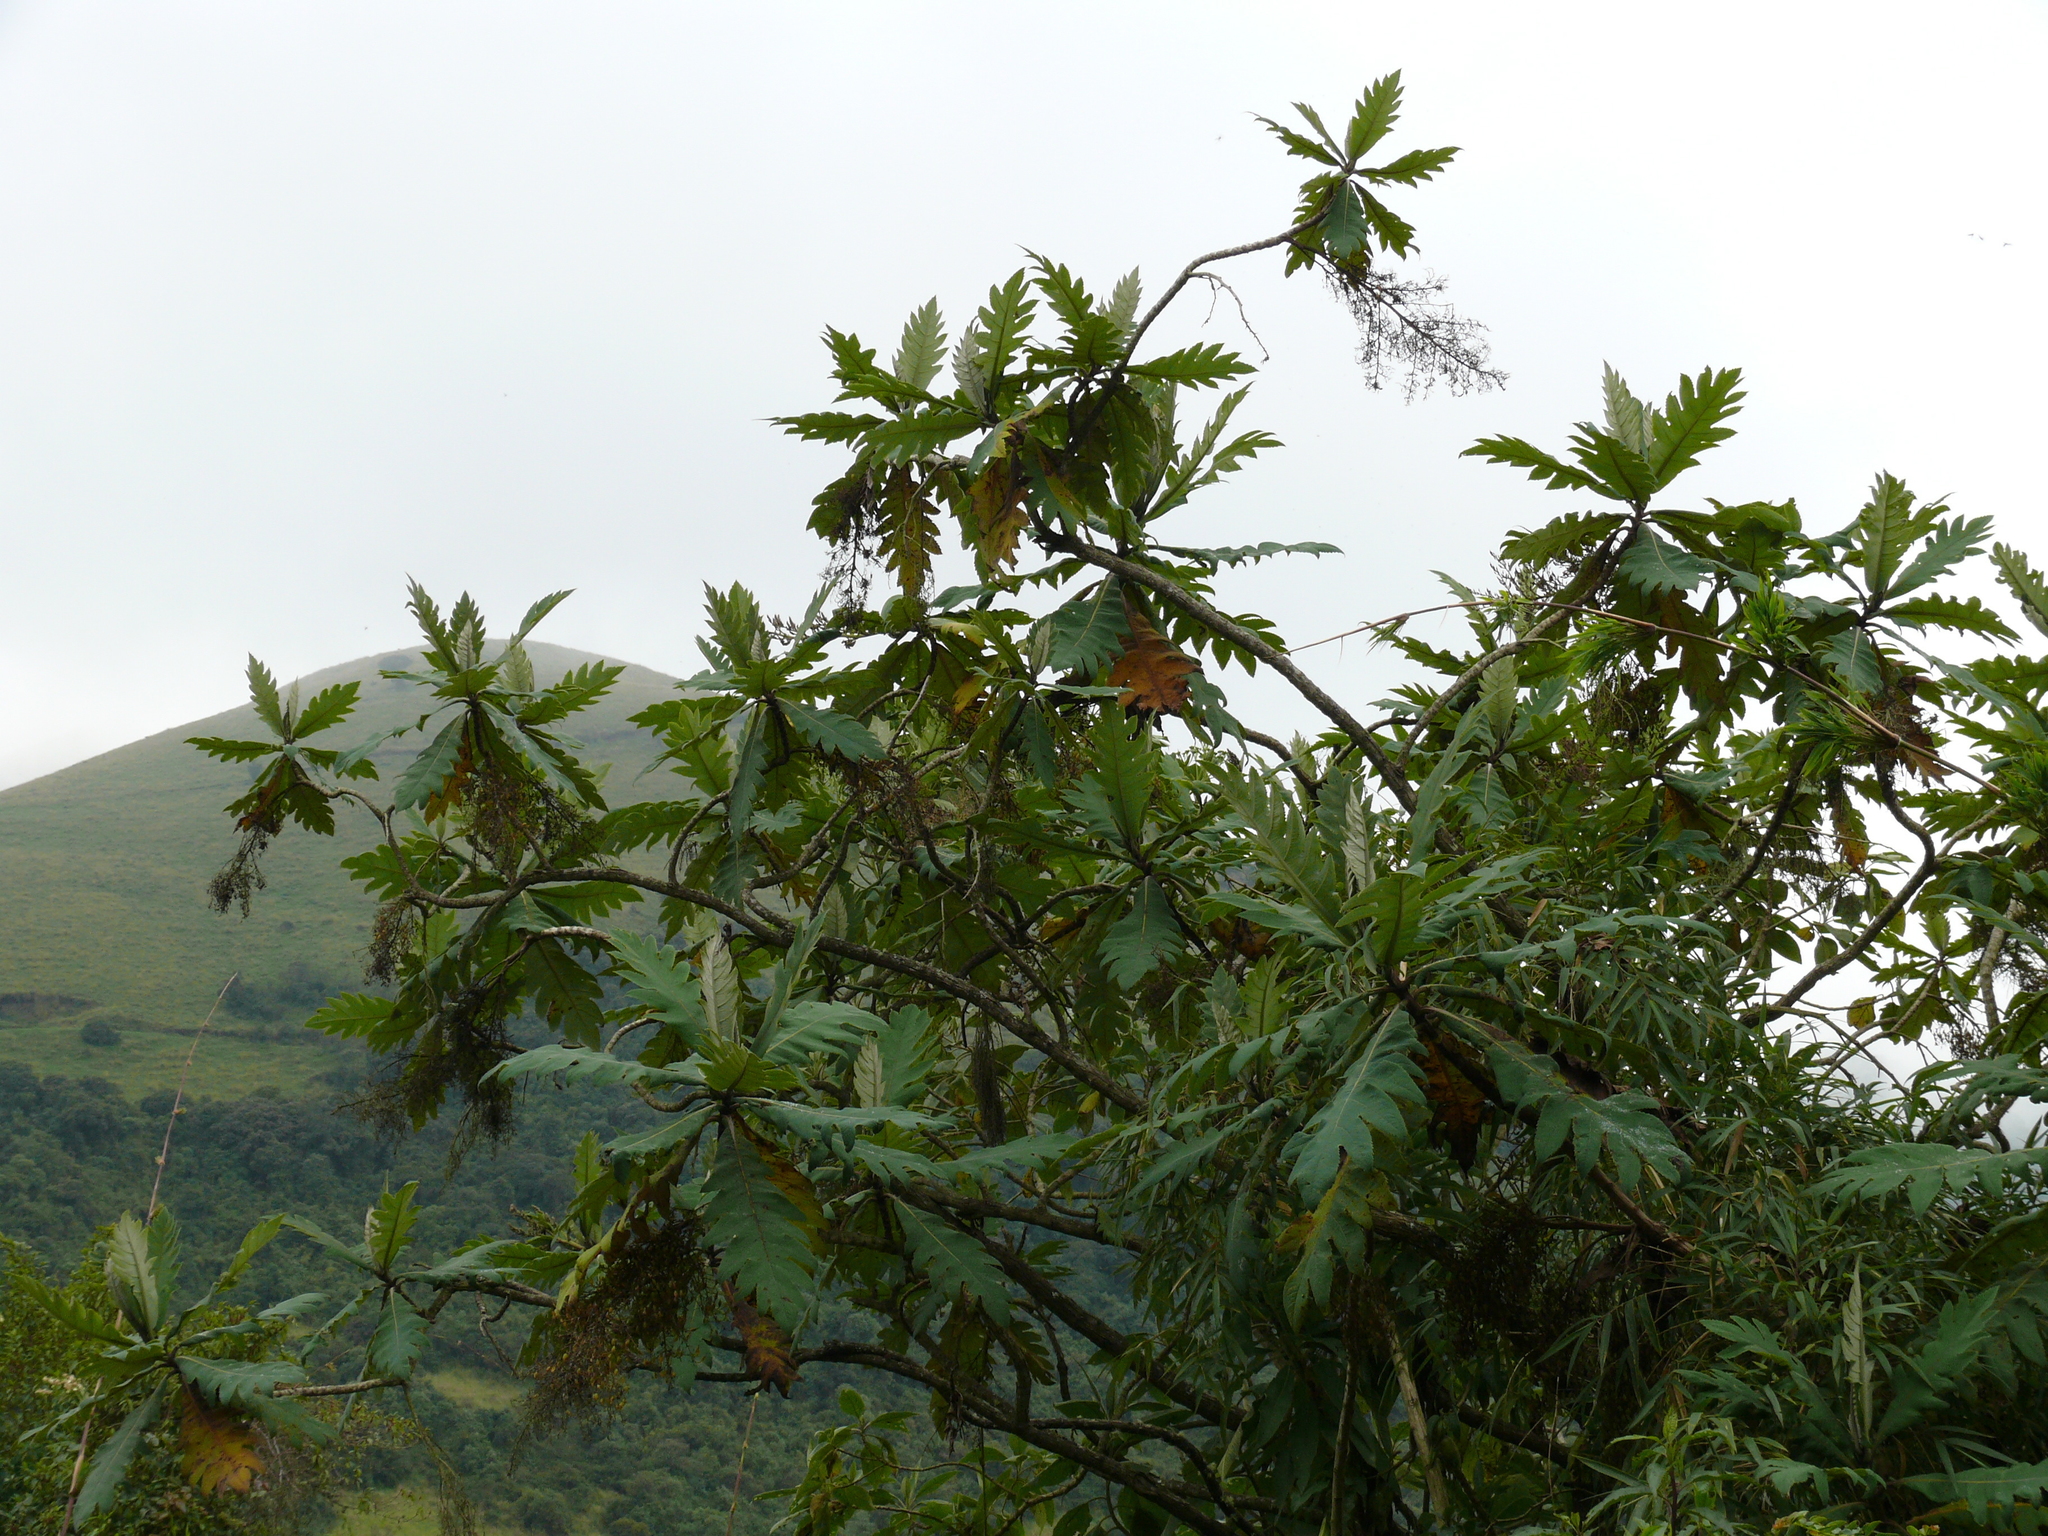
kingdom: Plantae
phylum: Tracheophyta
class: Magnoliopsida
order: Ranunculales
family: Papaveraceae
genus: Bocconia
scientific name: Bocconia frutescens
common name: Tree poppy
